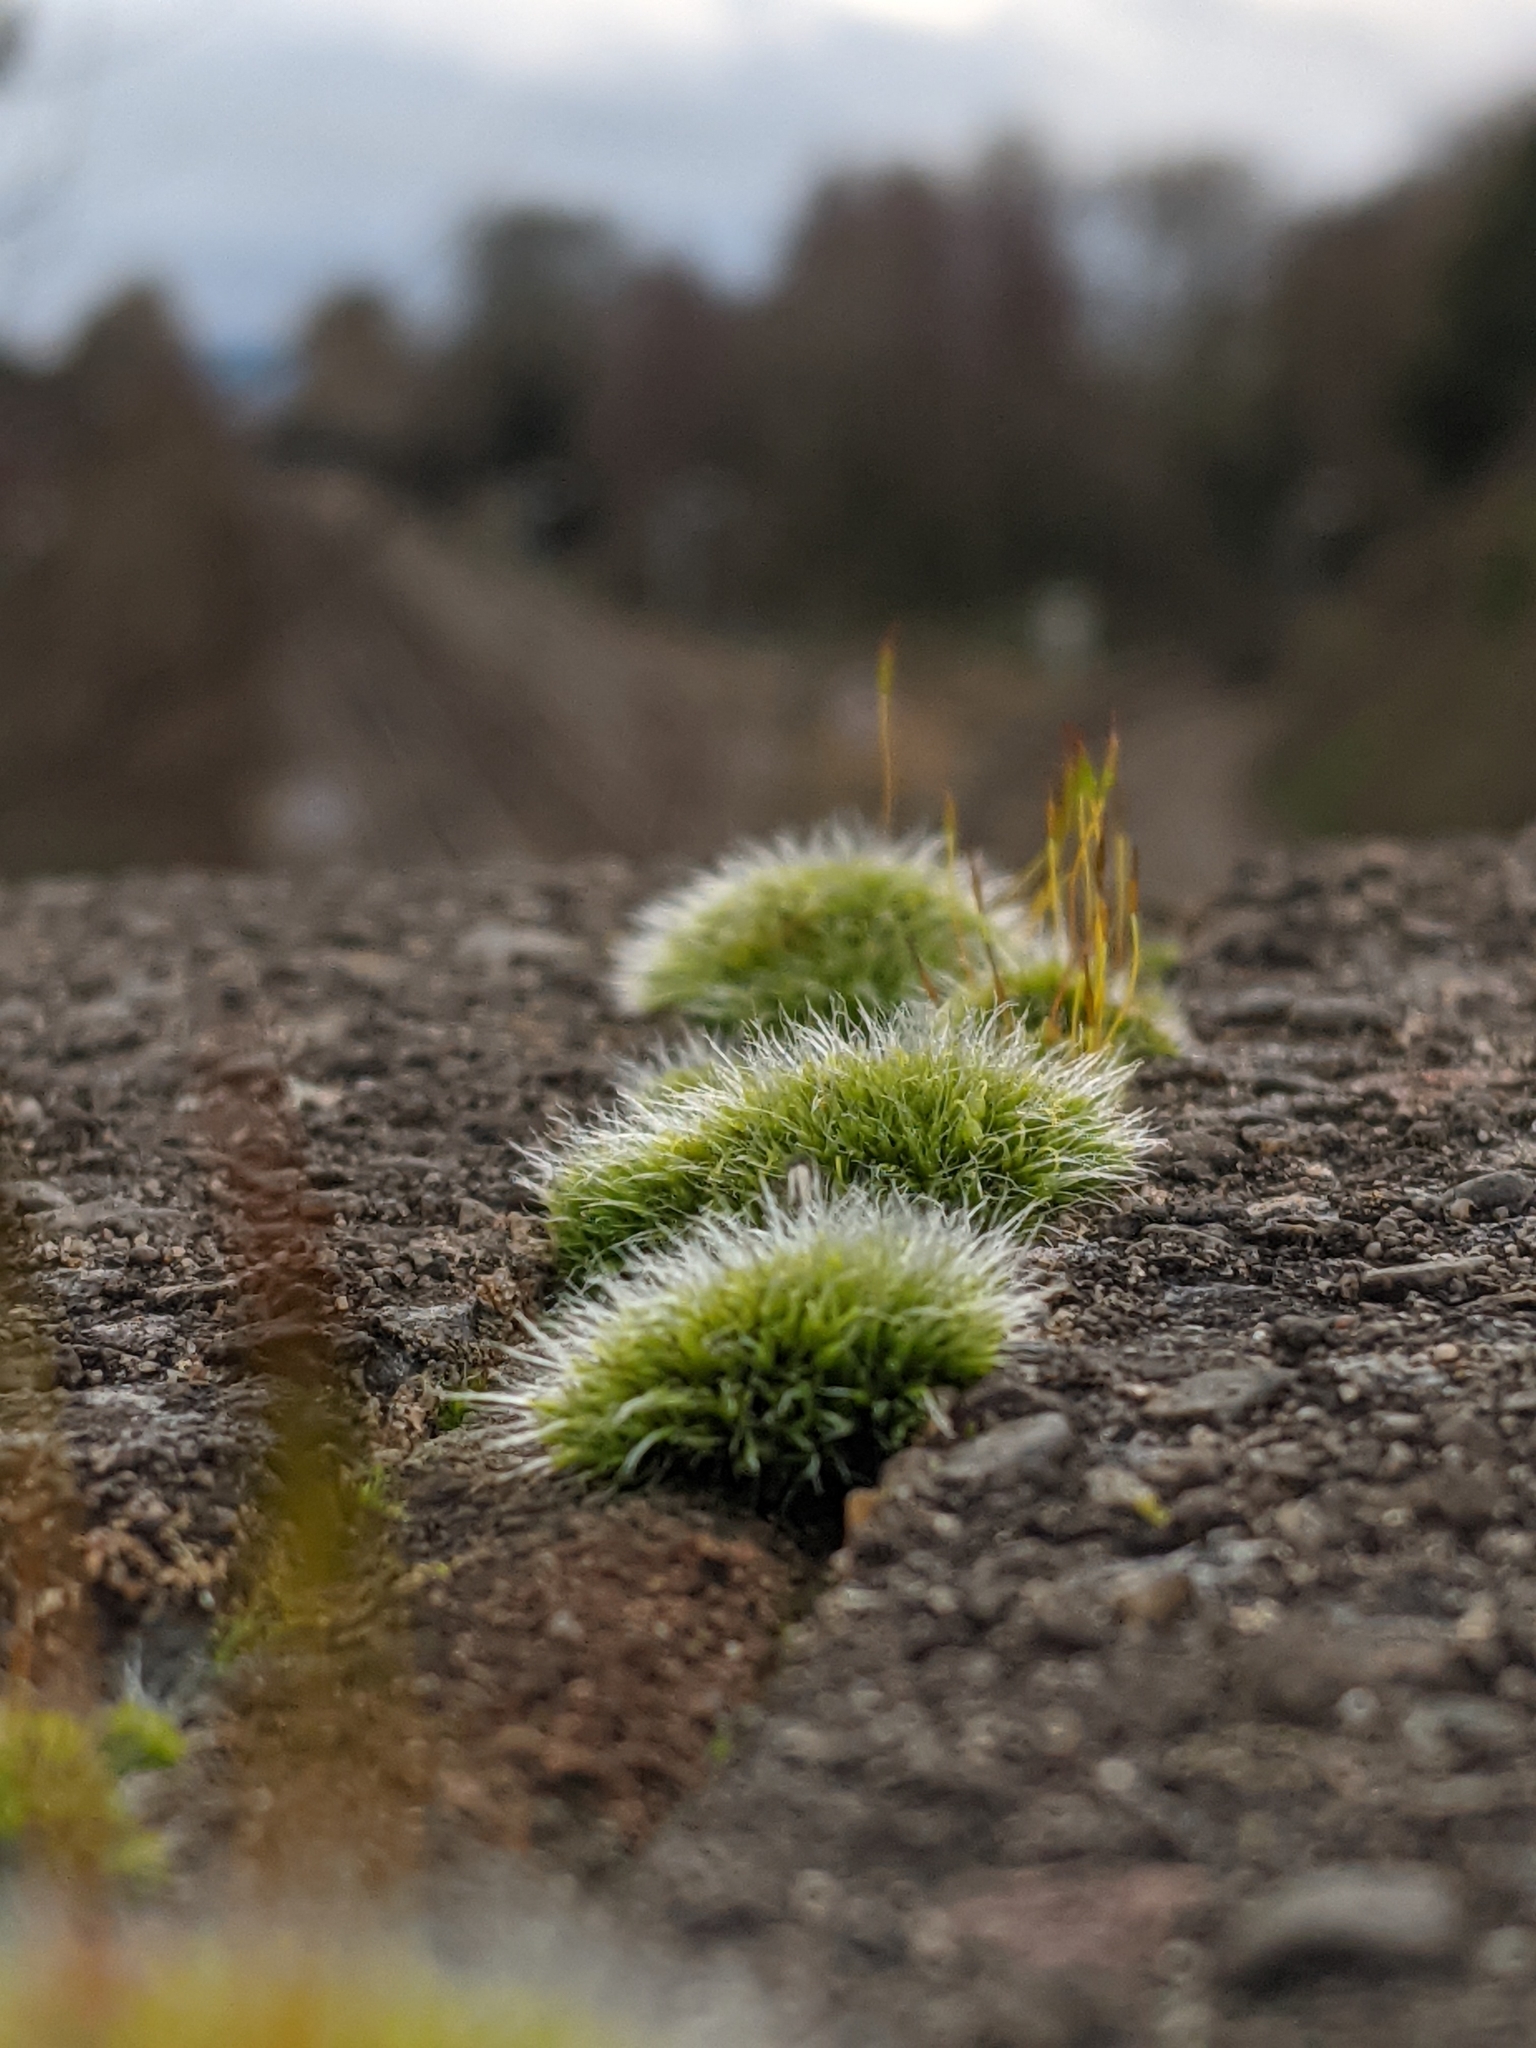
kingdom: Plantae
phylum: Bryophyta
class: Bryopsida
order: Grimmiales
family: Grimmiaceae
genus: Grimmia
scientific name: Grimmia pulvinata
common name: Grey-cushioned grimmia
